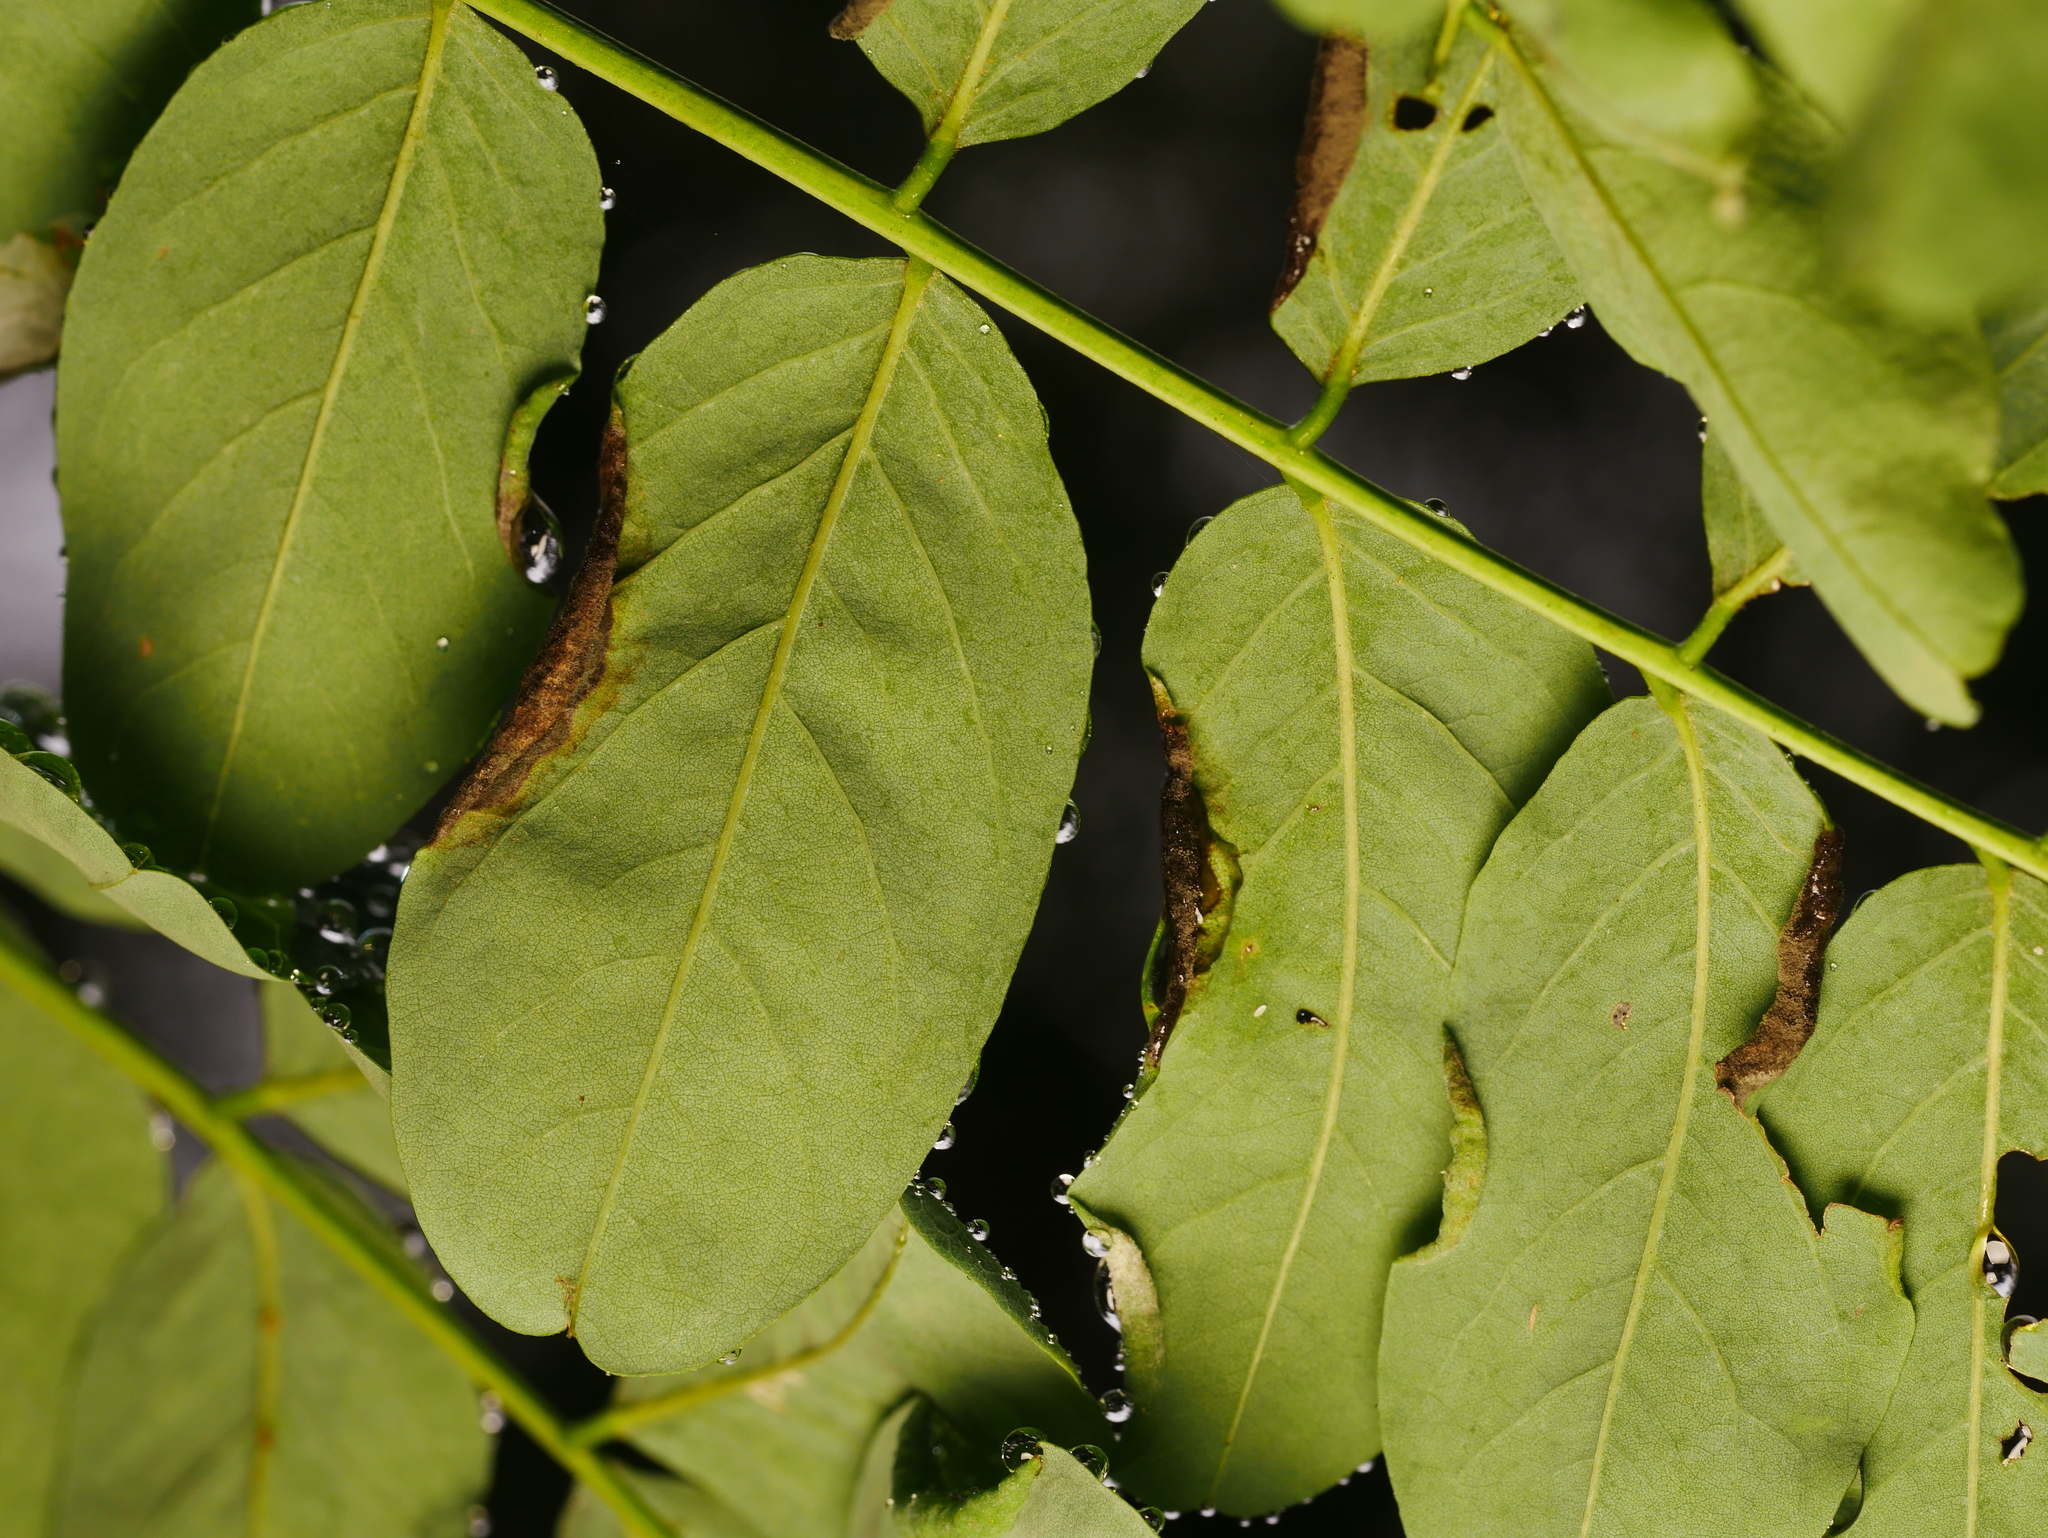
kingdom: Animalia
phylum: Arthropoda
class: Insecta
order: Diptera
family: Cecidomyiidae
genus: Obolodiplosis
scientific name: Obolodiplosis robiniae
